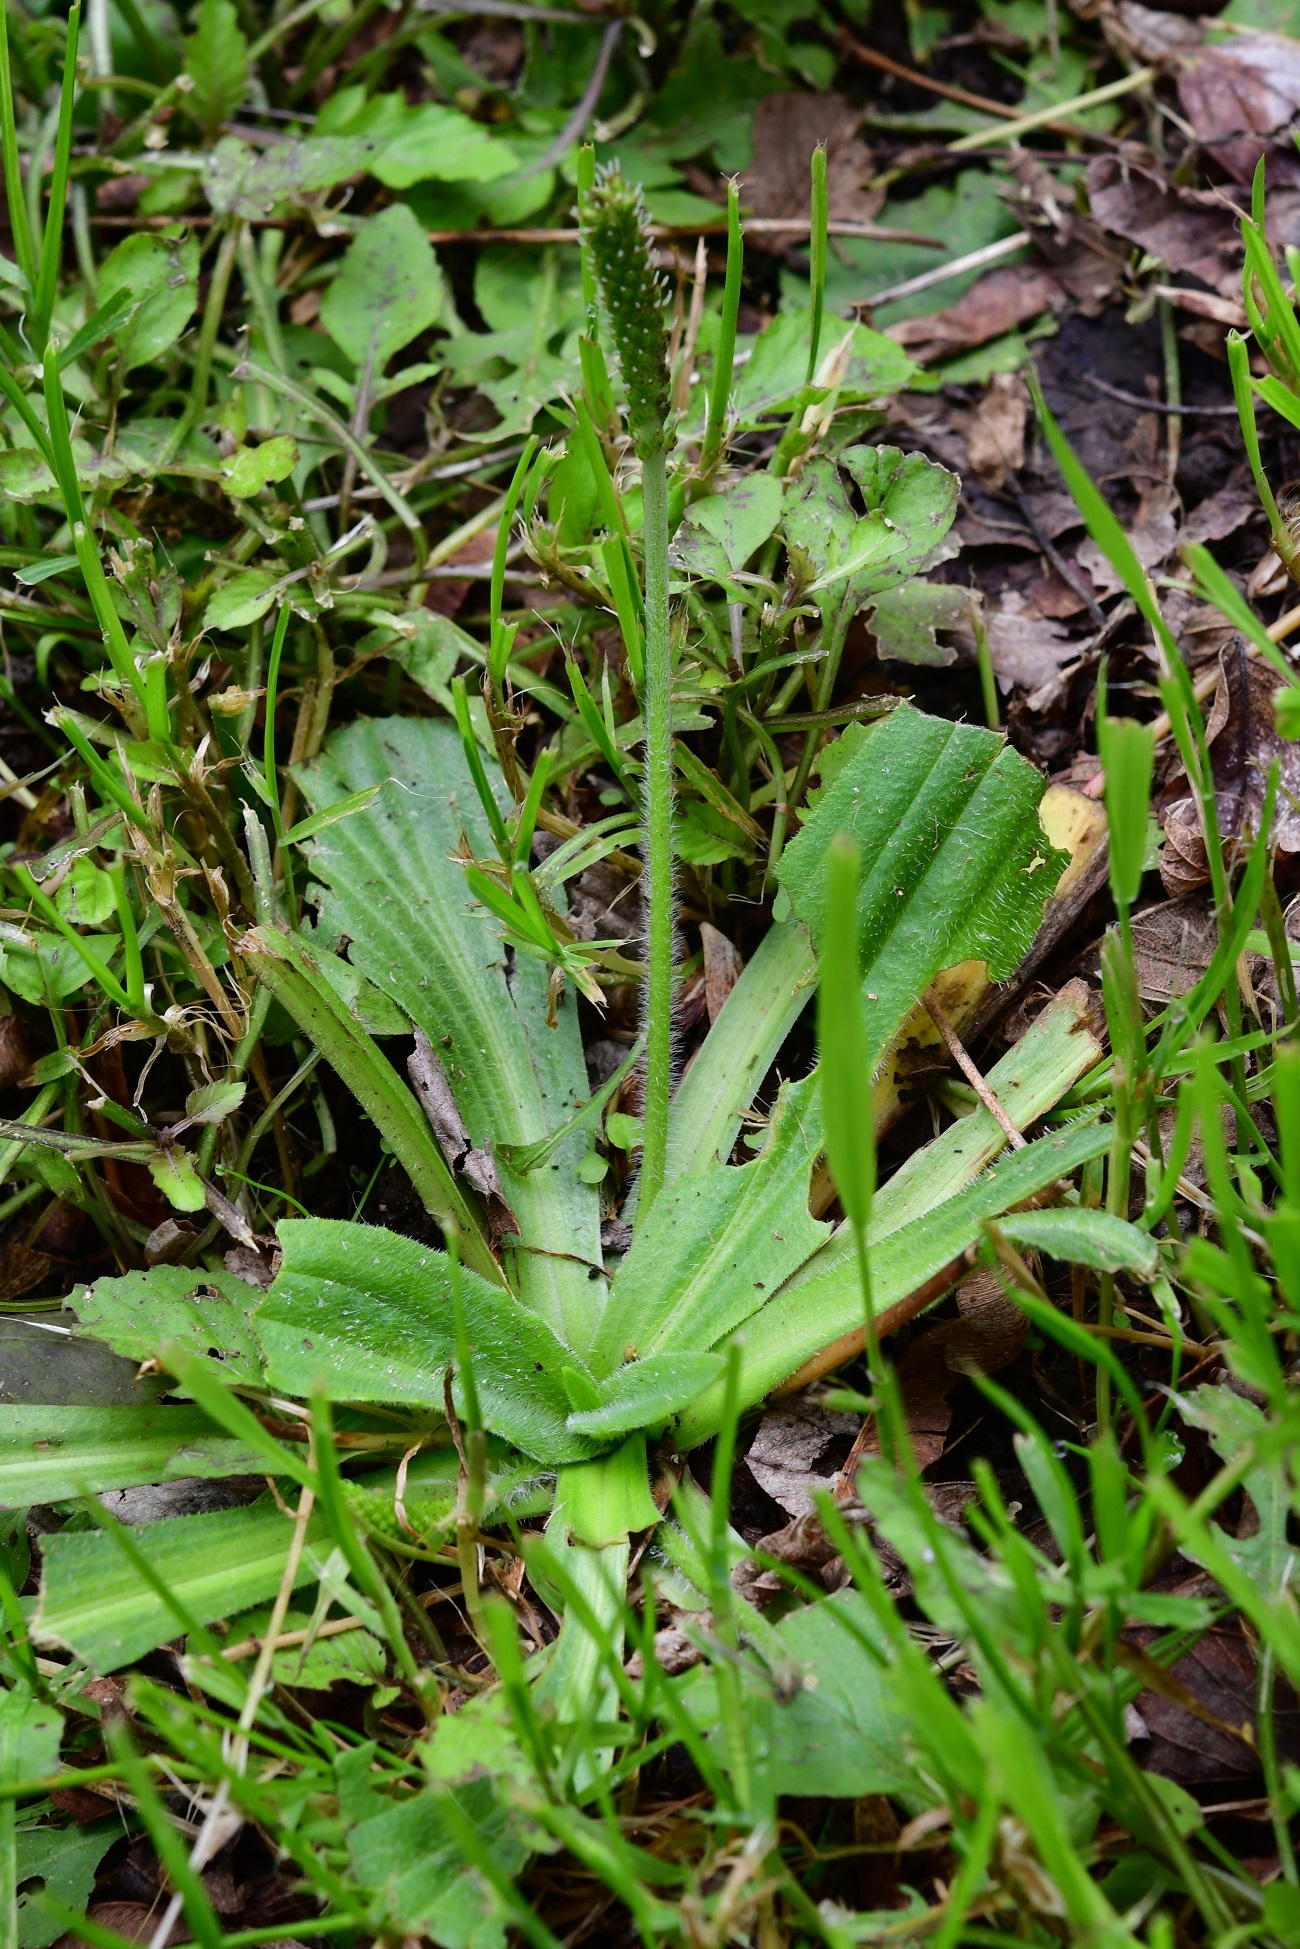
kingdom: Plantae
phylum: Tracheophyta
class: Magnoliopsida
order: Lamiales
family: Plantaginaceae
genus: Plantago
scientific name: Plantago australis
